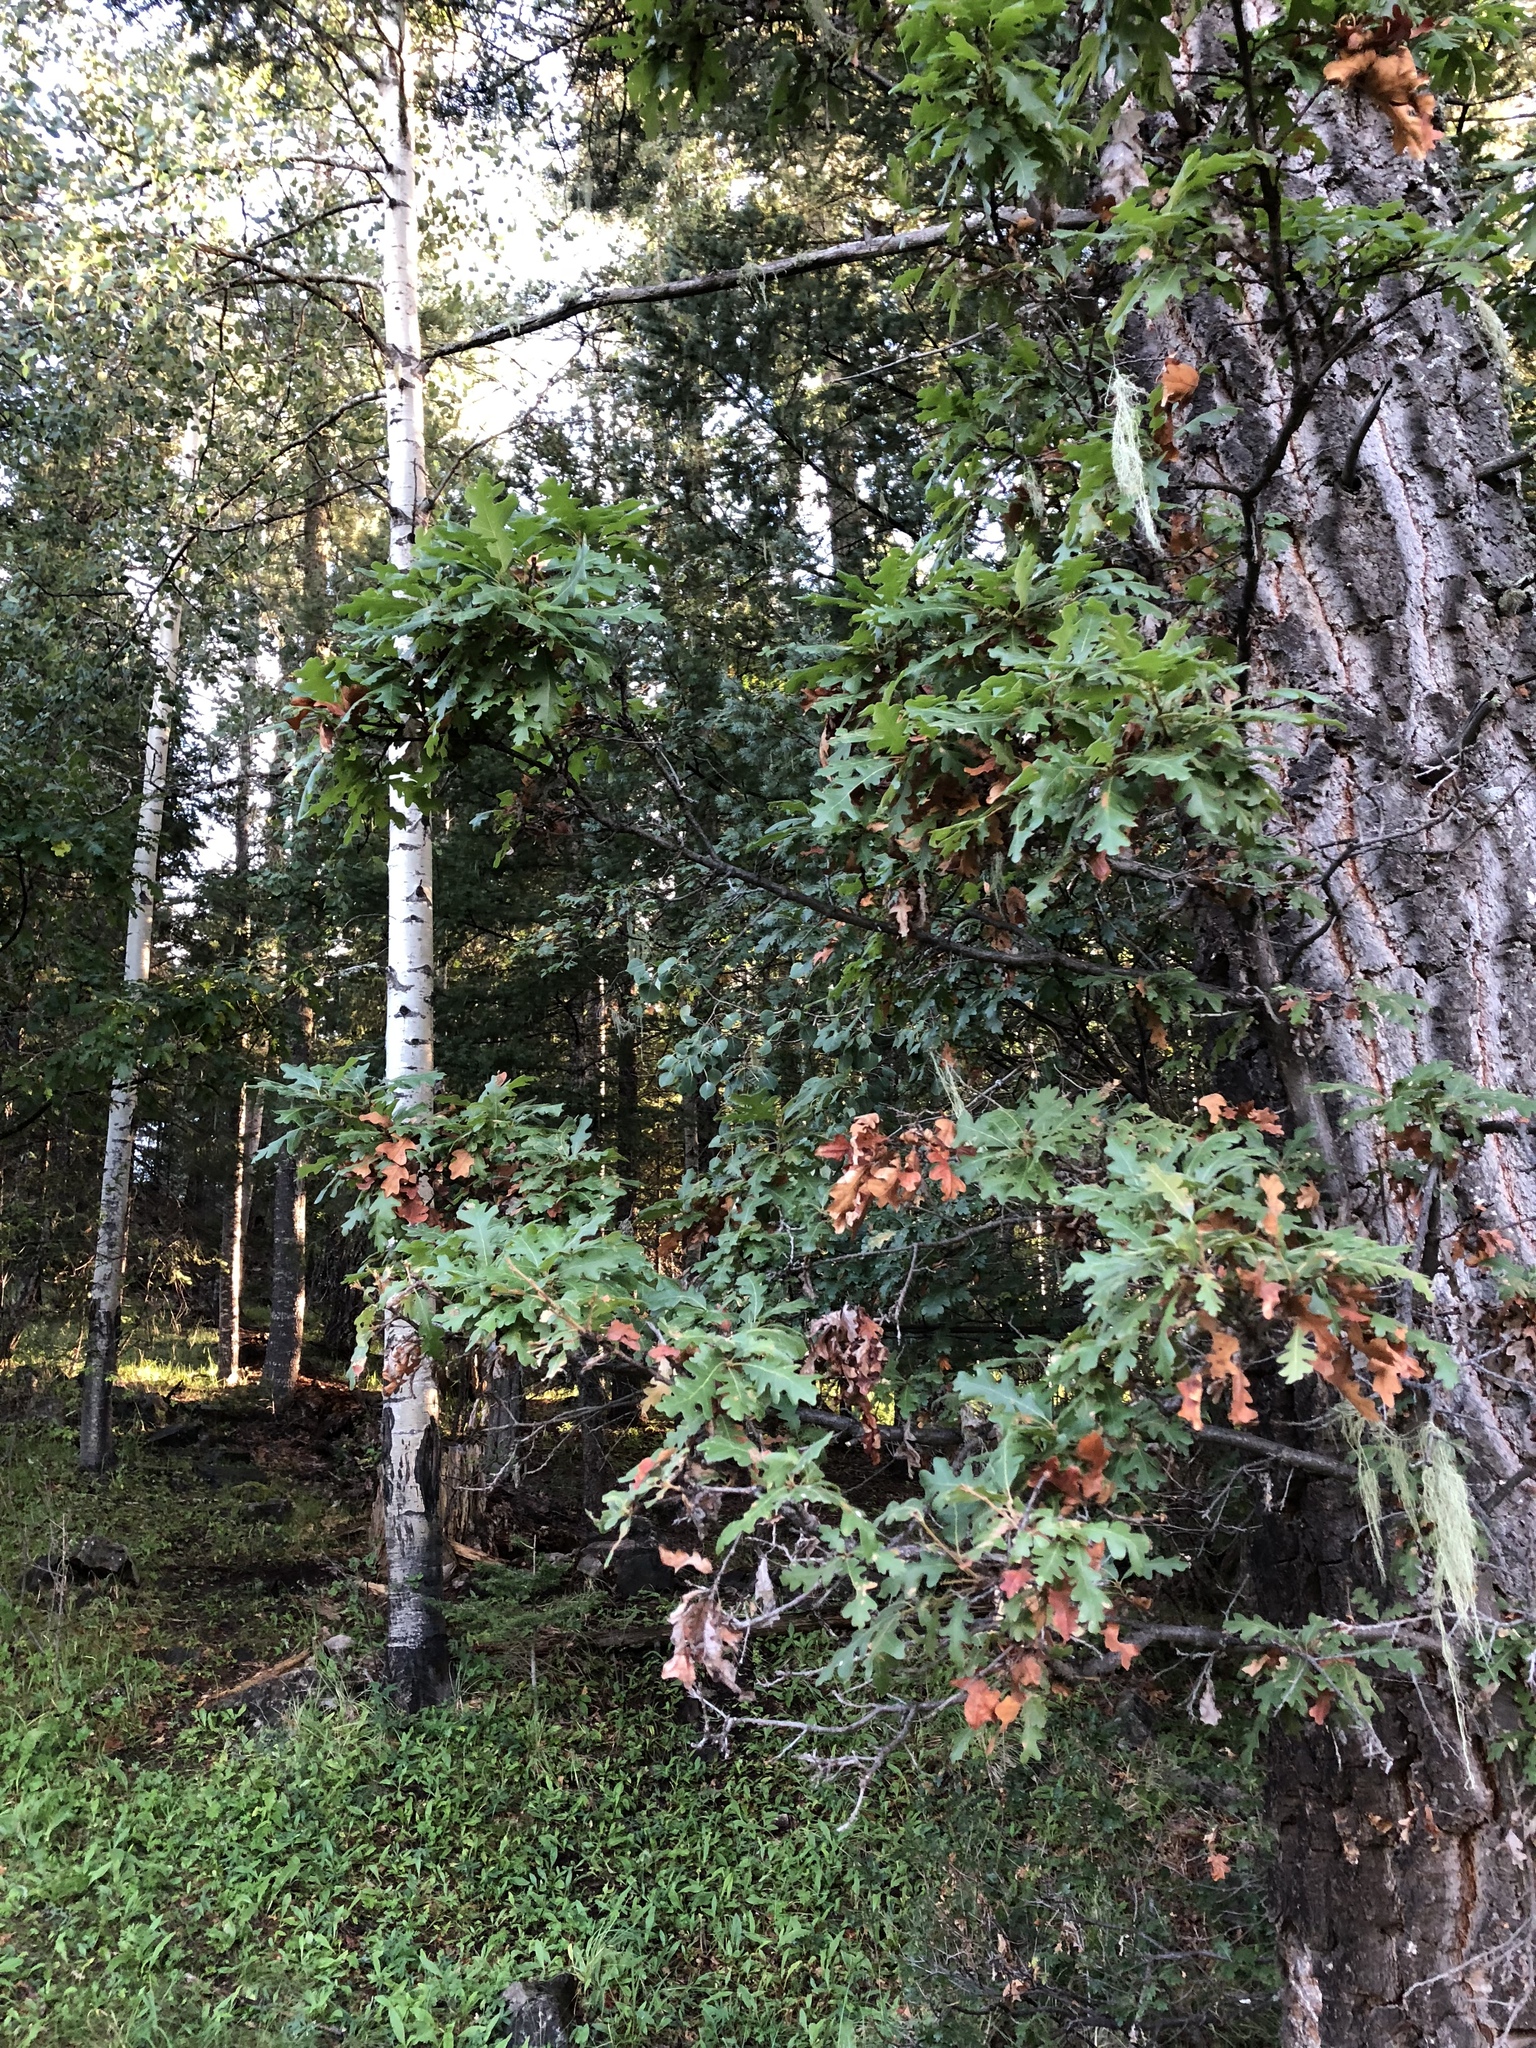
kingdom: Plantae
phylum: Tracheophyta
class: Magnoliopsida
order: Fagales
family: Fagaceae
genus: Quercus
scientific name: Quercus gambelii
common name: Gambel oak
